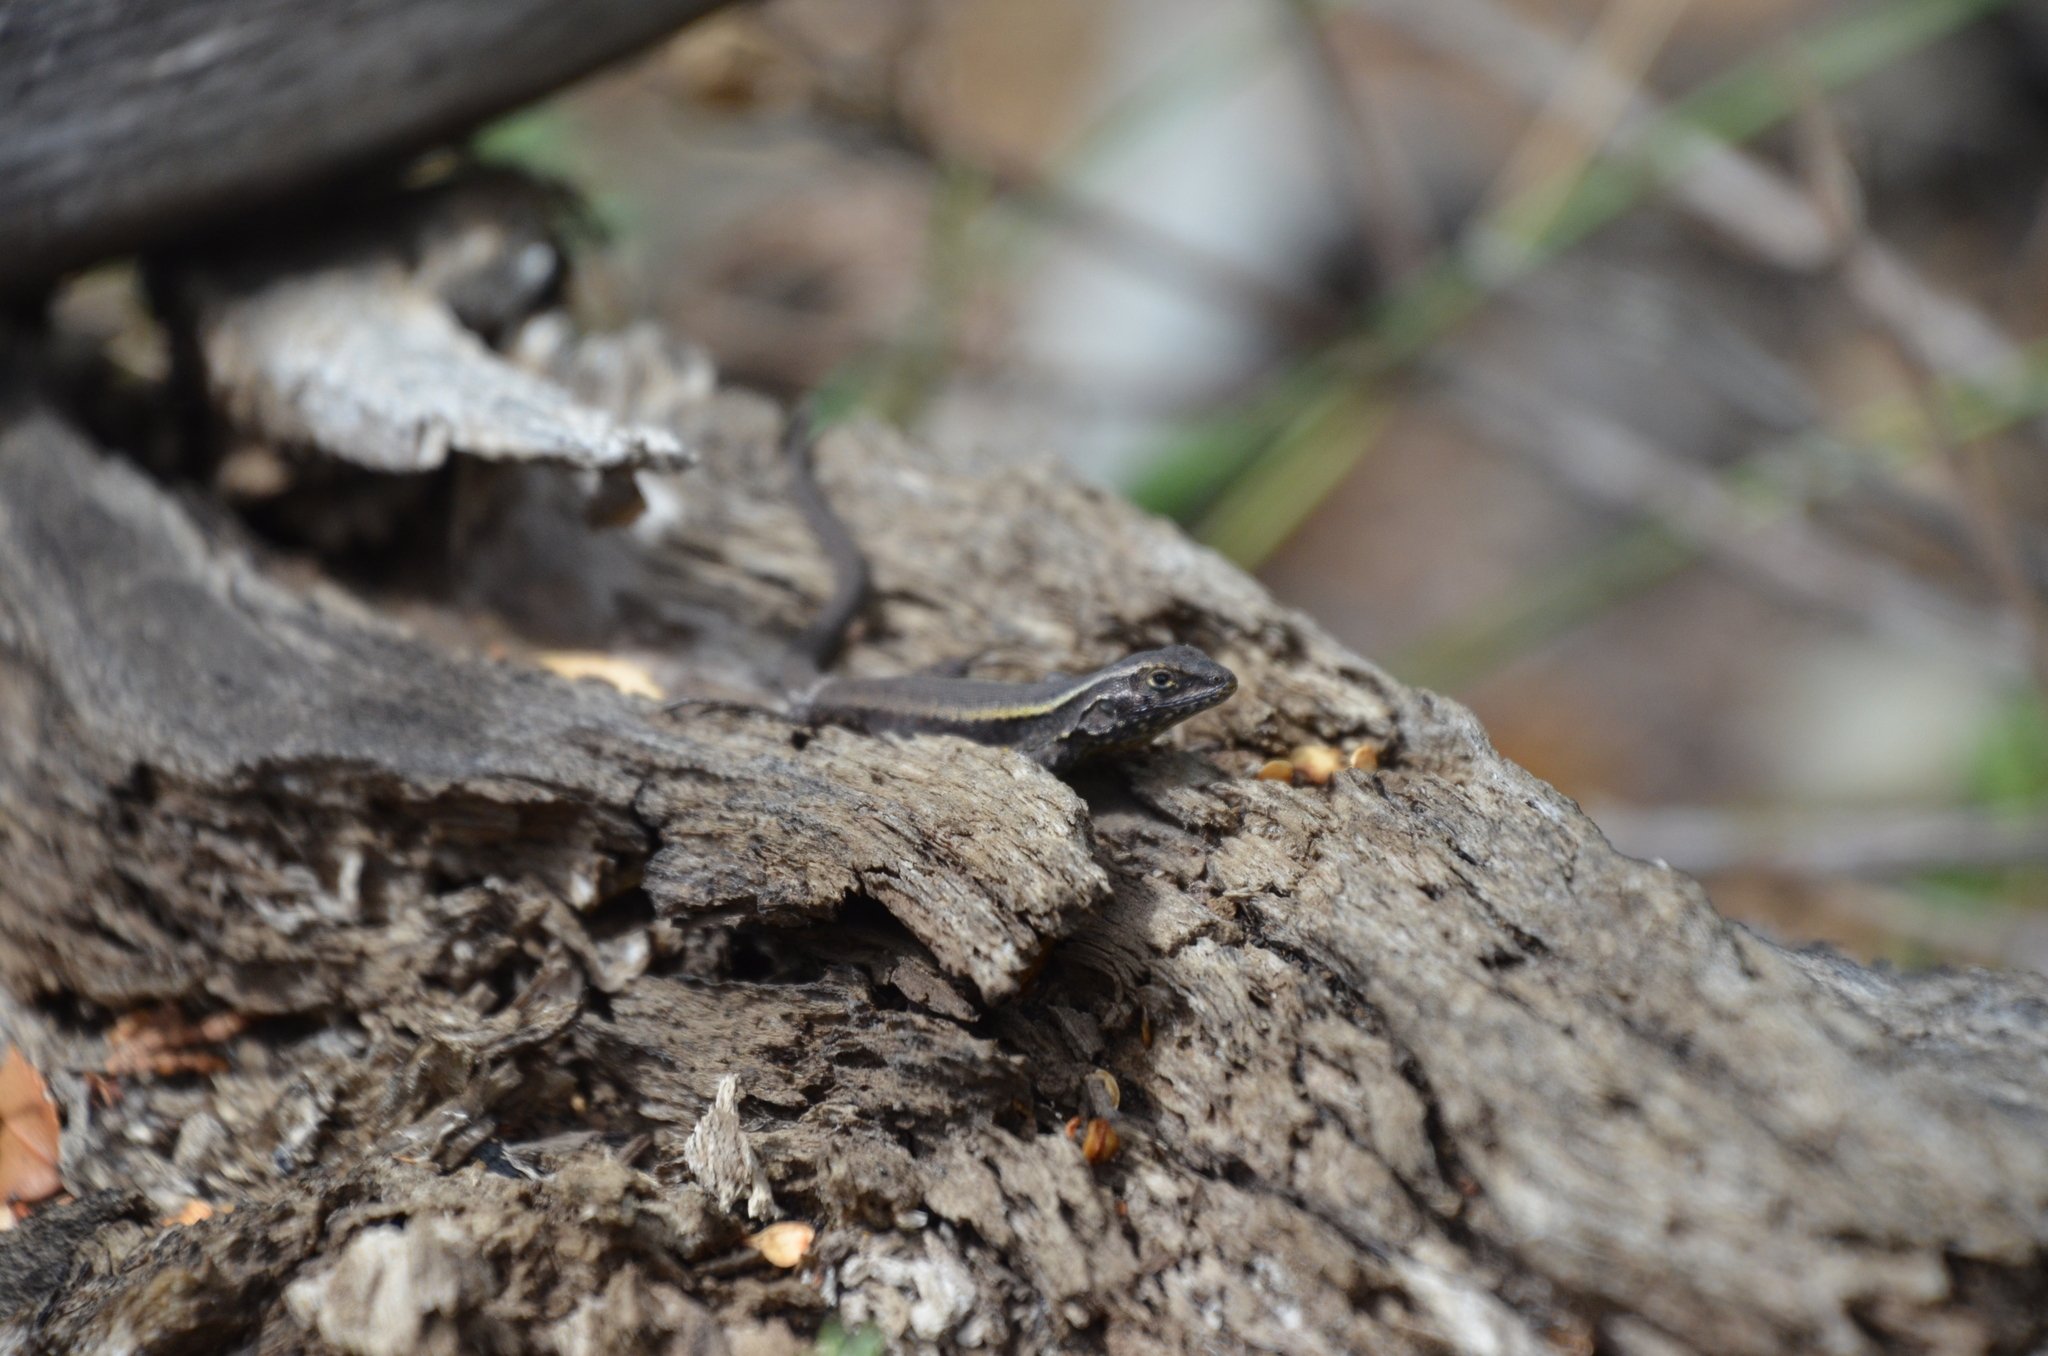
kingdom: Animalia
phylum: Chordata
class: Squamata
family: Liolaemidae
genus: Liolaemus
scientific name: Liolaemus pictus
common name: Painted tree iguana
